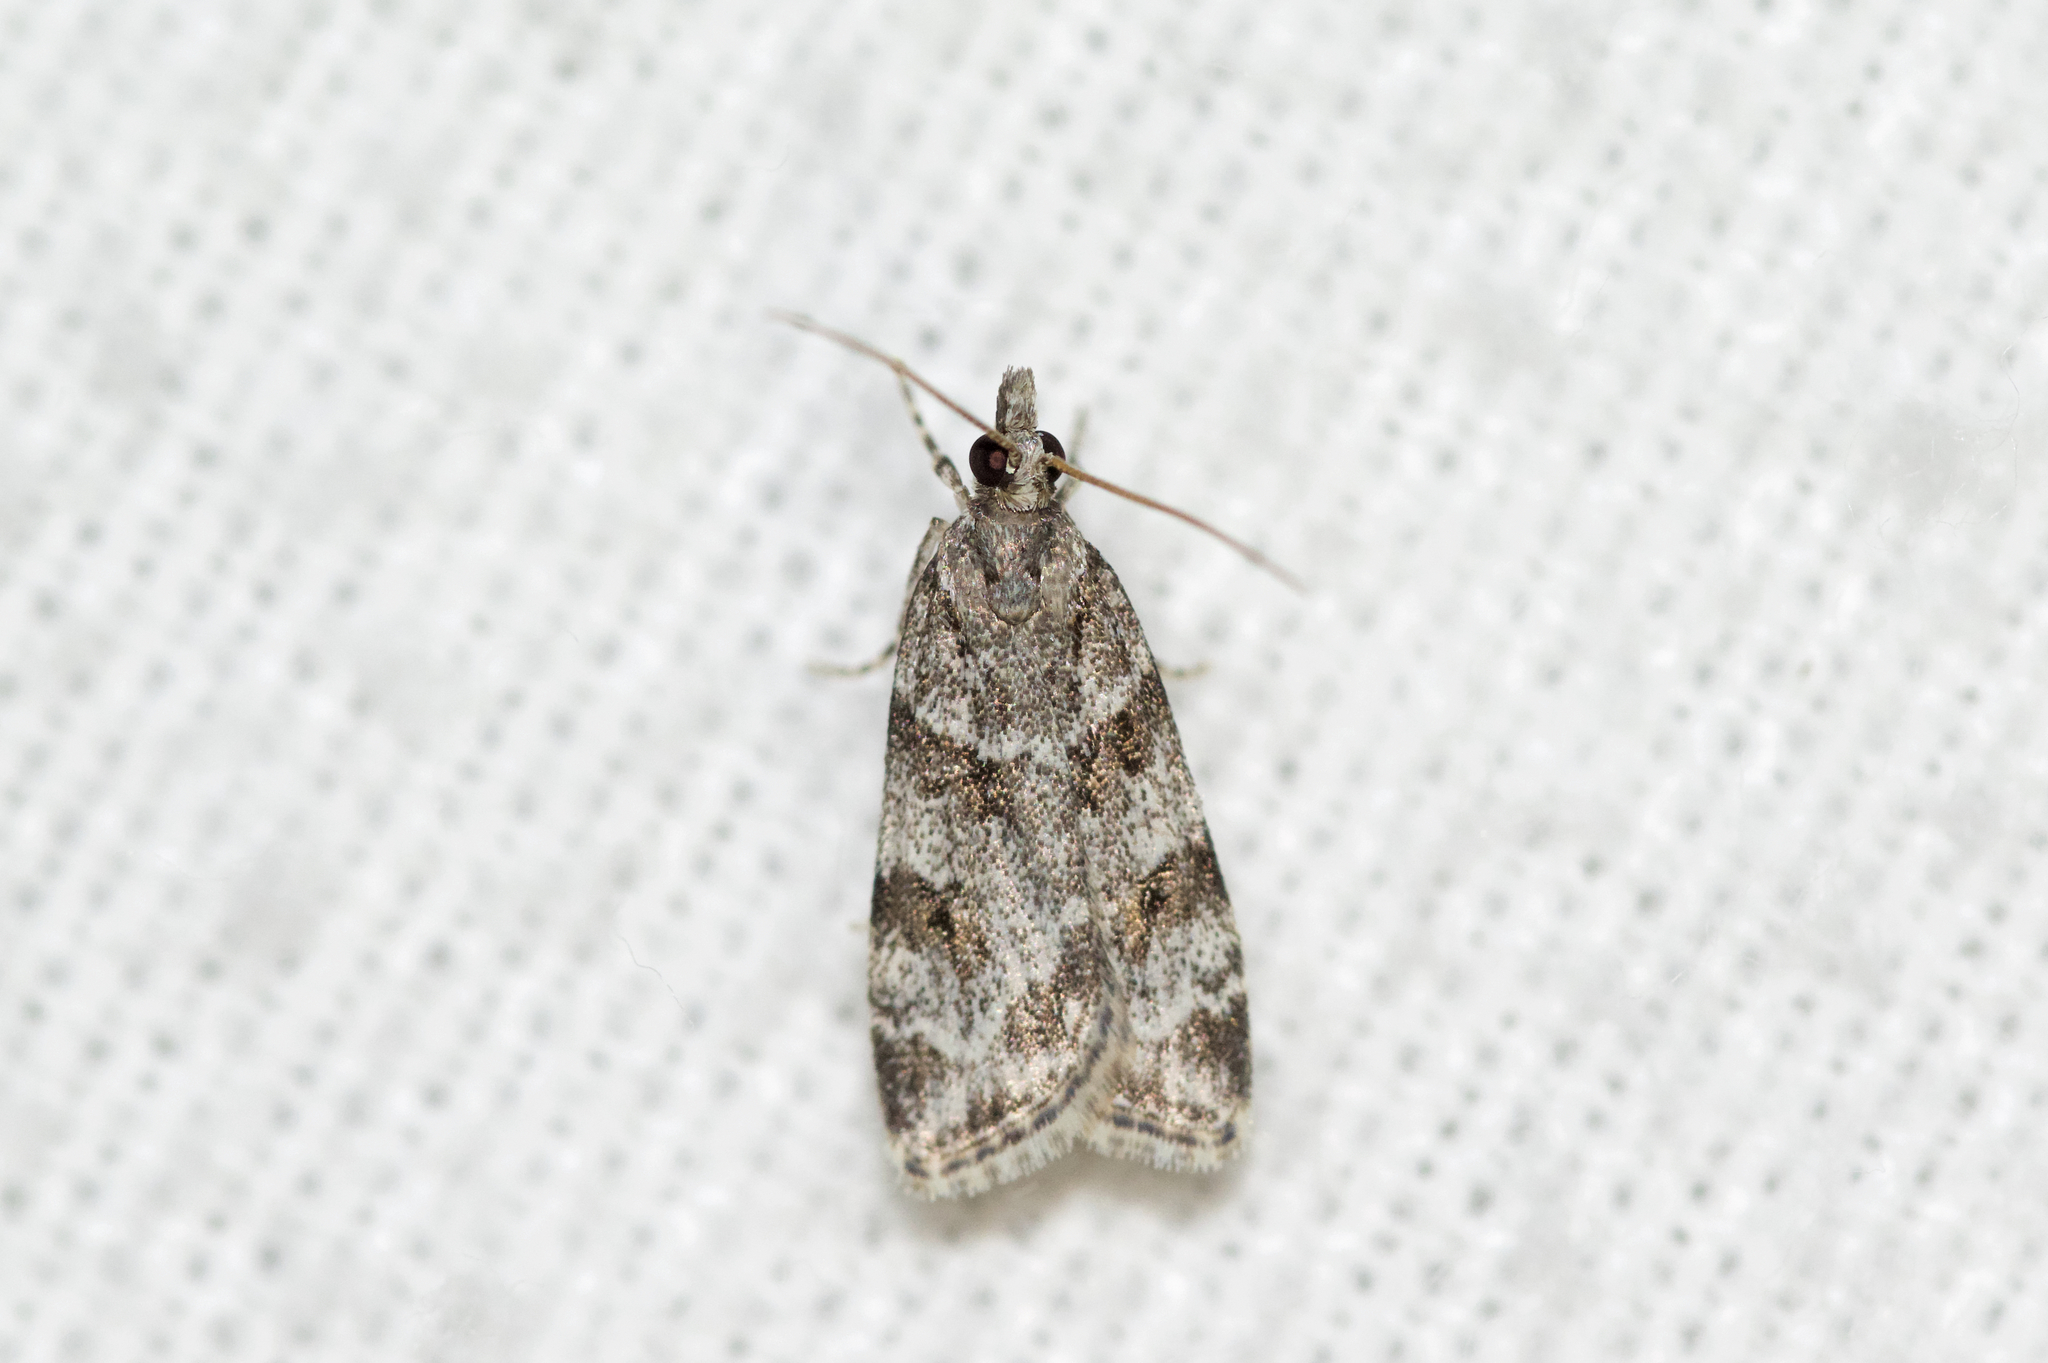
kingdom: Animalia
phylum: Arthropoda
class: Insecta
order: Lepidoptera
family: Crambidae
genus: Scoparia
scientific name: Scoparia biplagialis
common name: Double-striped scoparia moth
